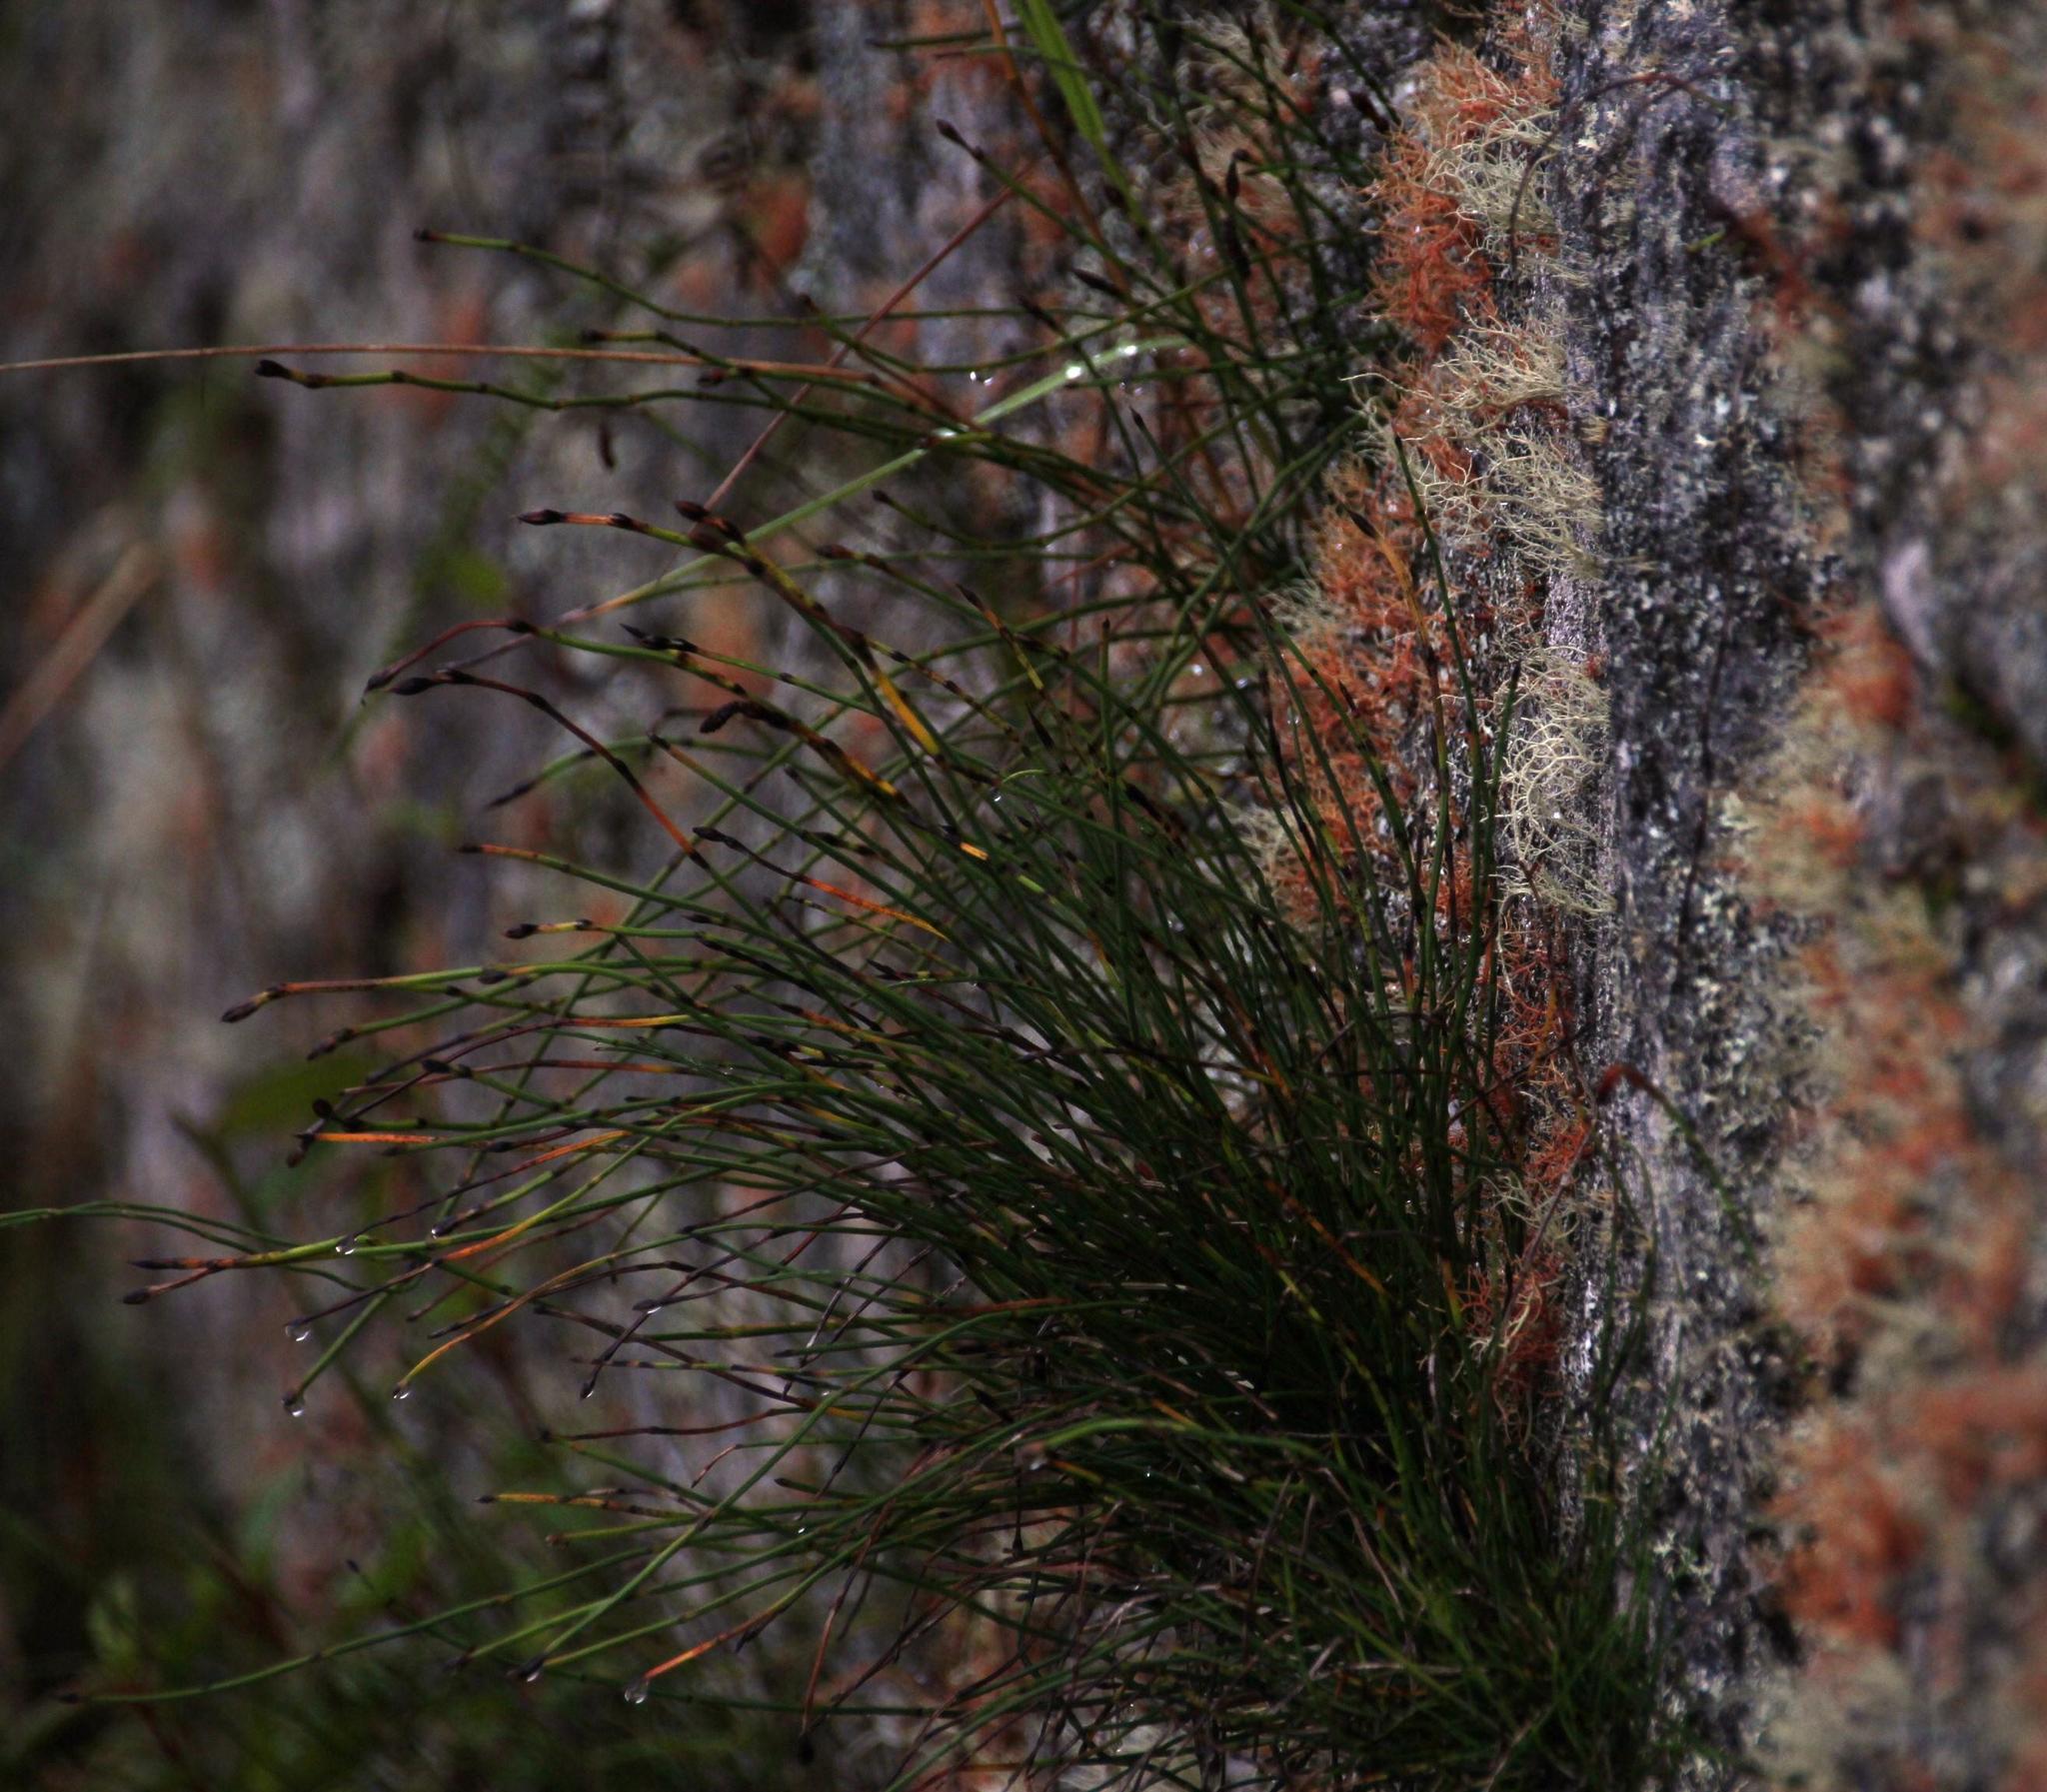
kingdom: Plantae
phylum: Tracheophyta
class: Polypodiopsida
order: Equisetales
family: Equisetaceae
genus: Equisetum
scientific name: Equisetum bogotense
